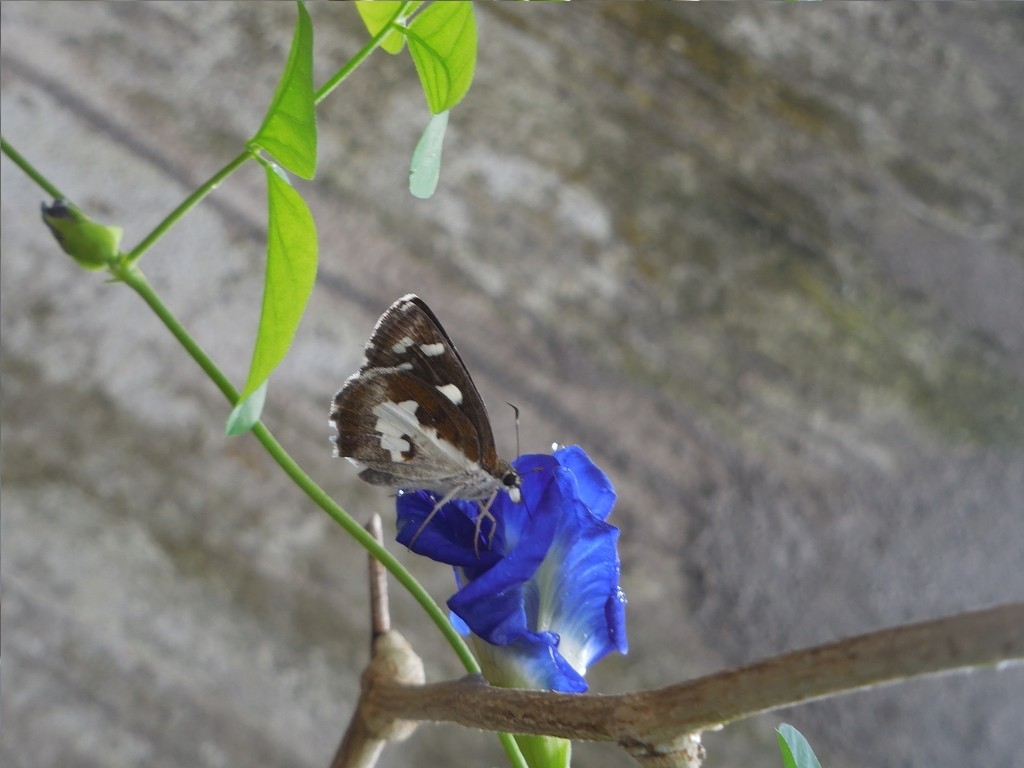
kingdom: Animalia
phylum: Arthropoda
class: Insecta
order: Lepidoptera
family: Hesperiidae
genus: Udaspes
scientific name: Udaspes folus
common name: Grass demon
